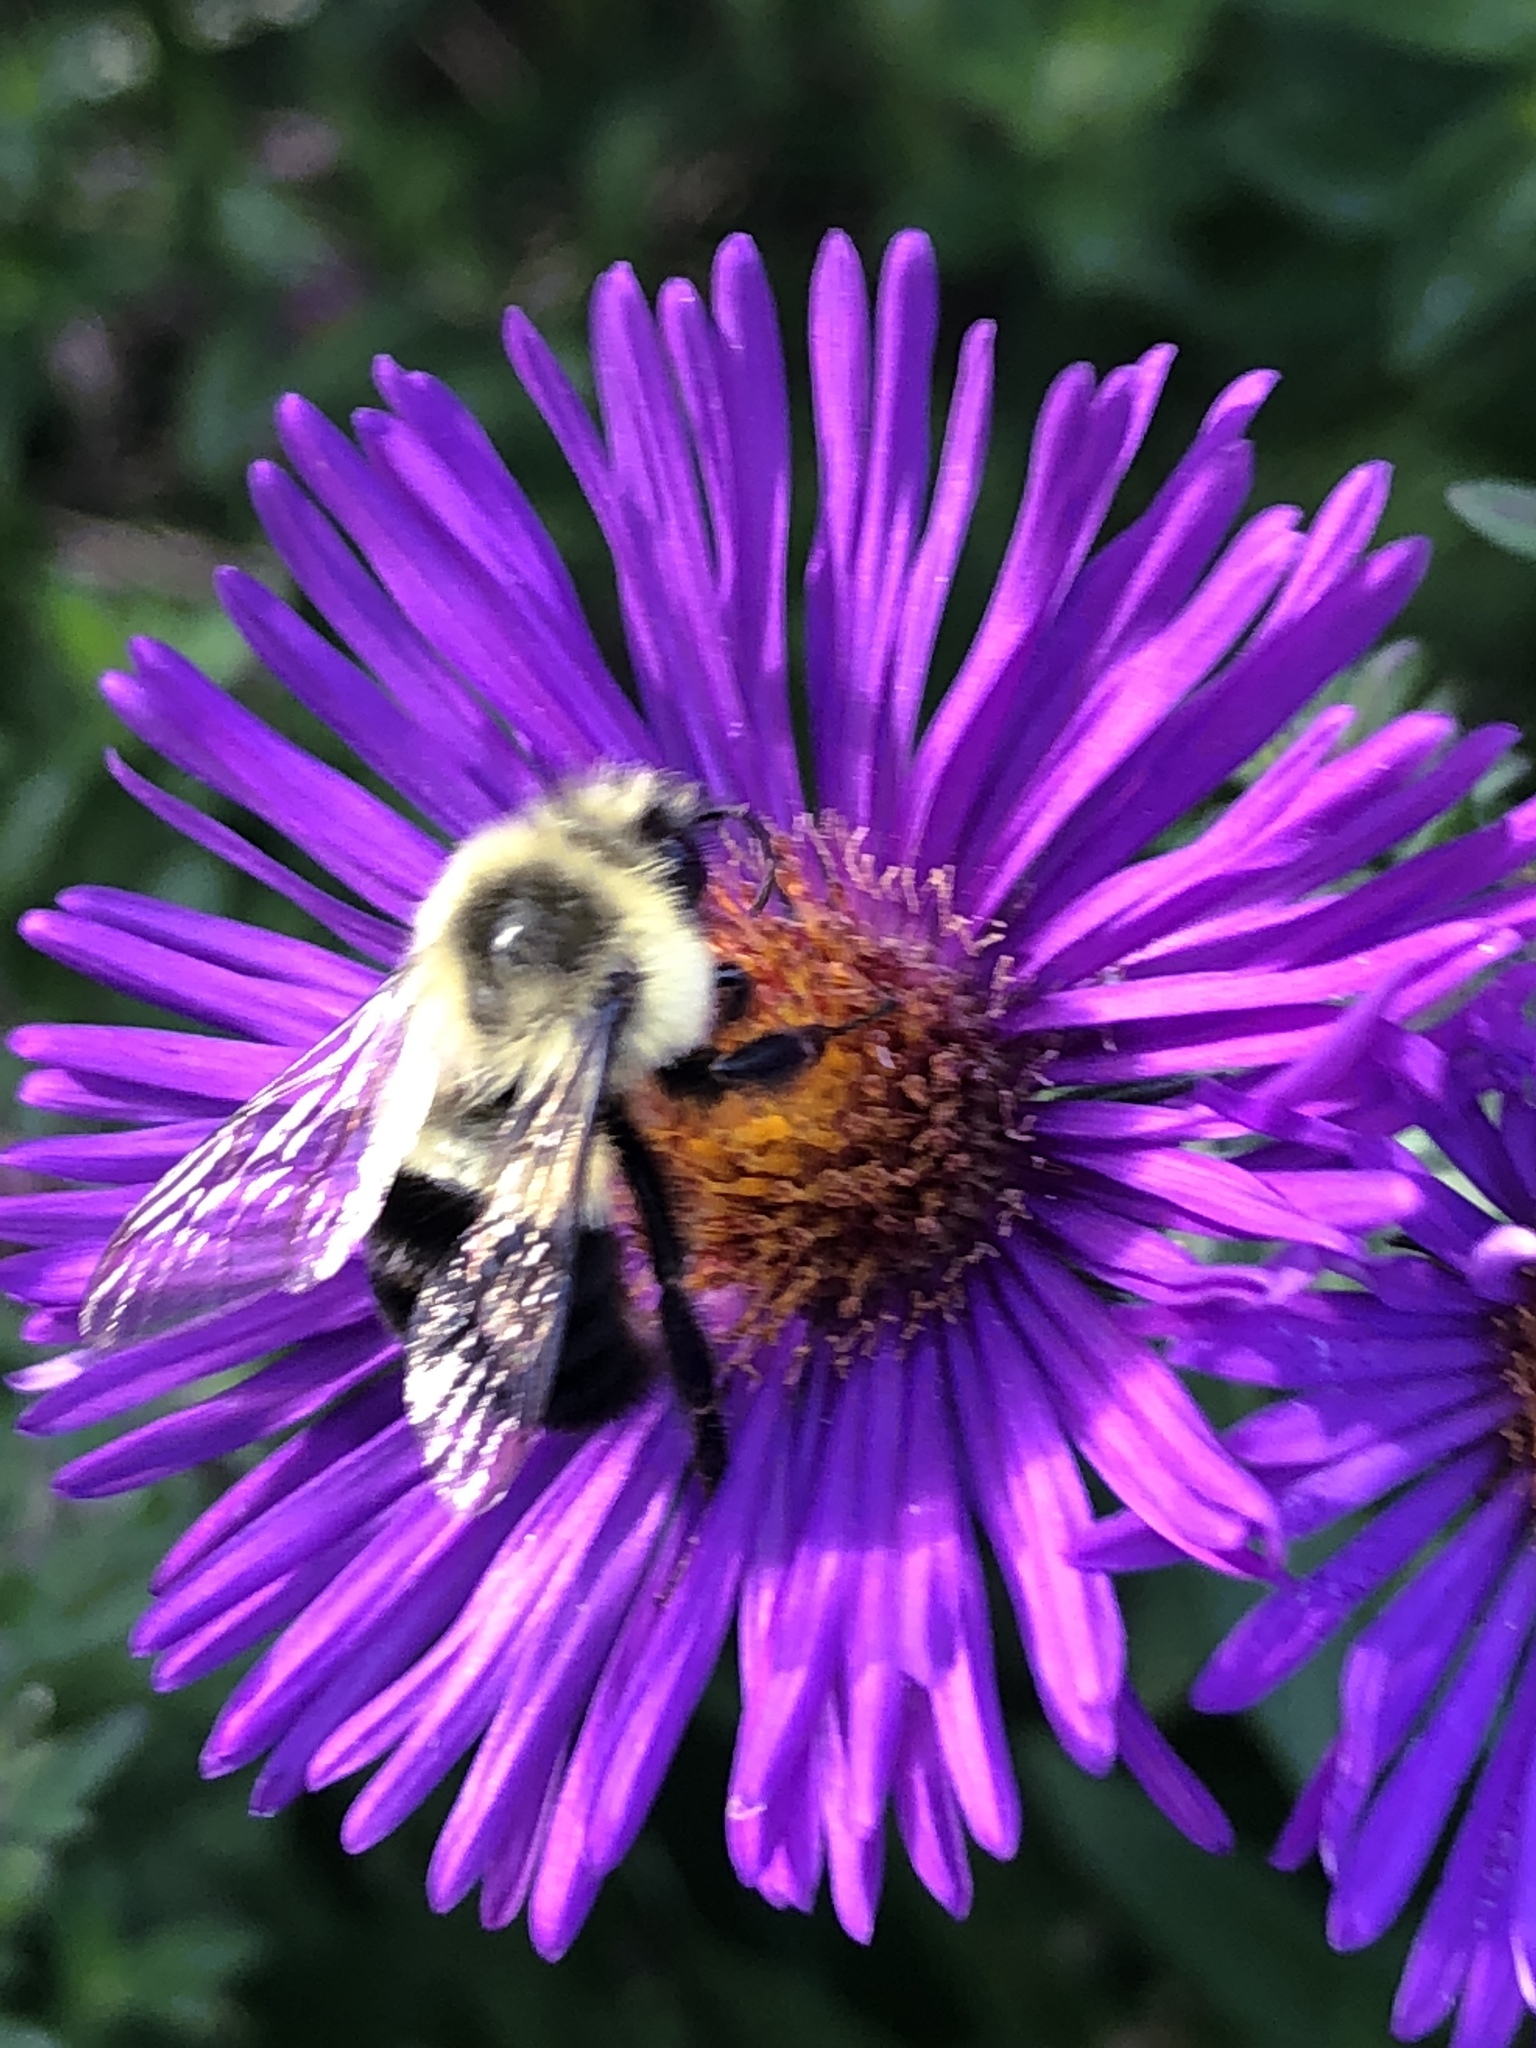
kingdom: Animalia
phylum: Arthropoda
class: Insecta
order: Hymenoptera
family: Apidae
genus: Bombus
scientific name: Bombus impatiens
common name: Common eastern bumble bee
